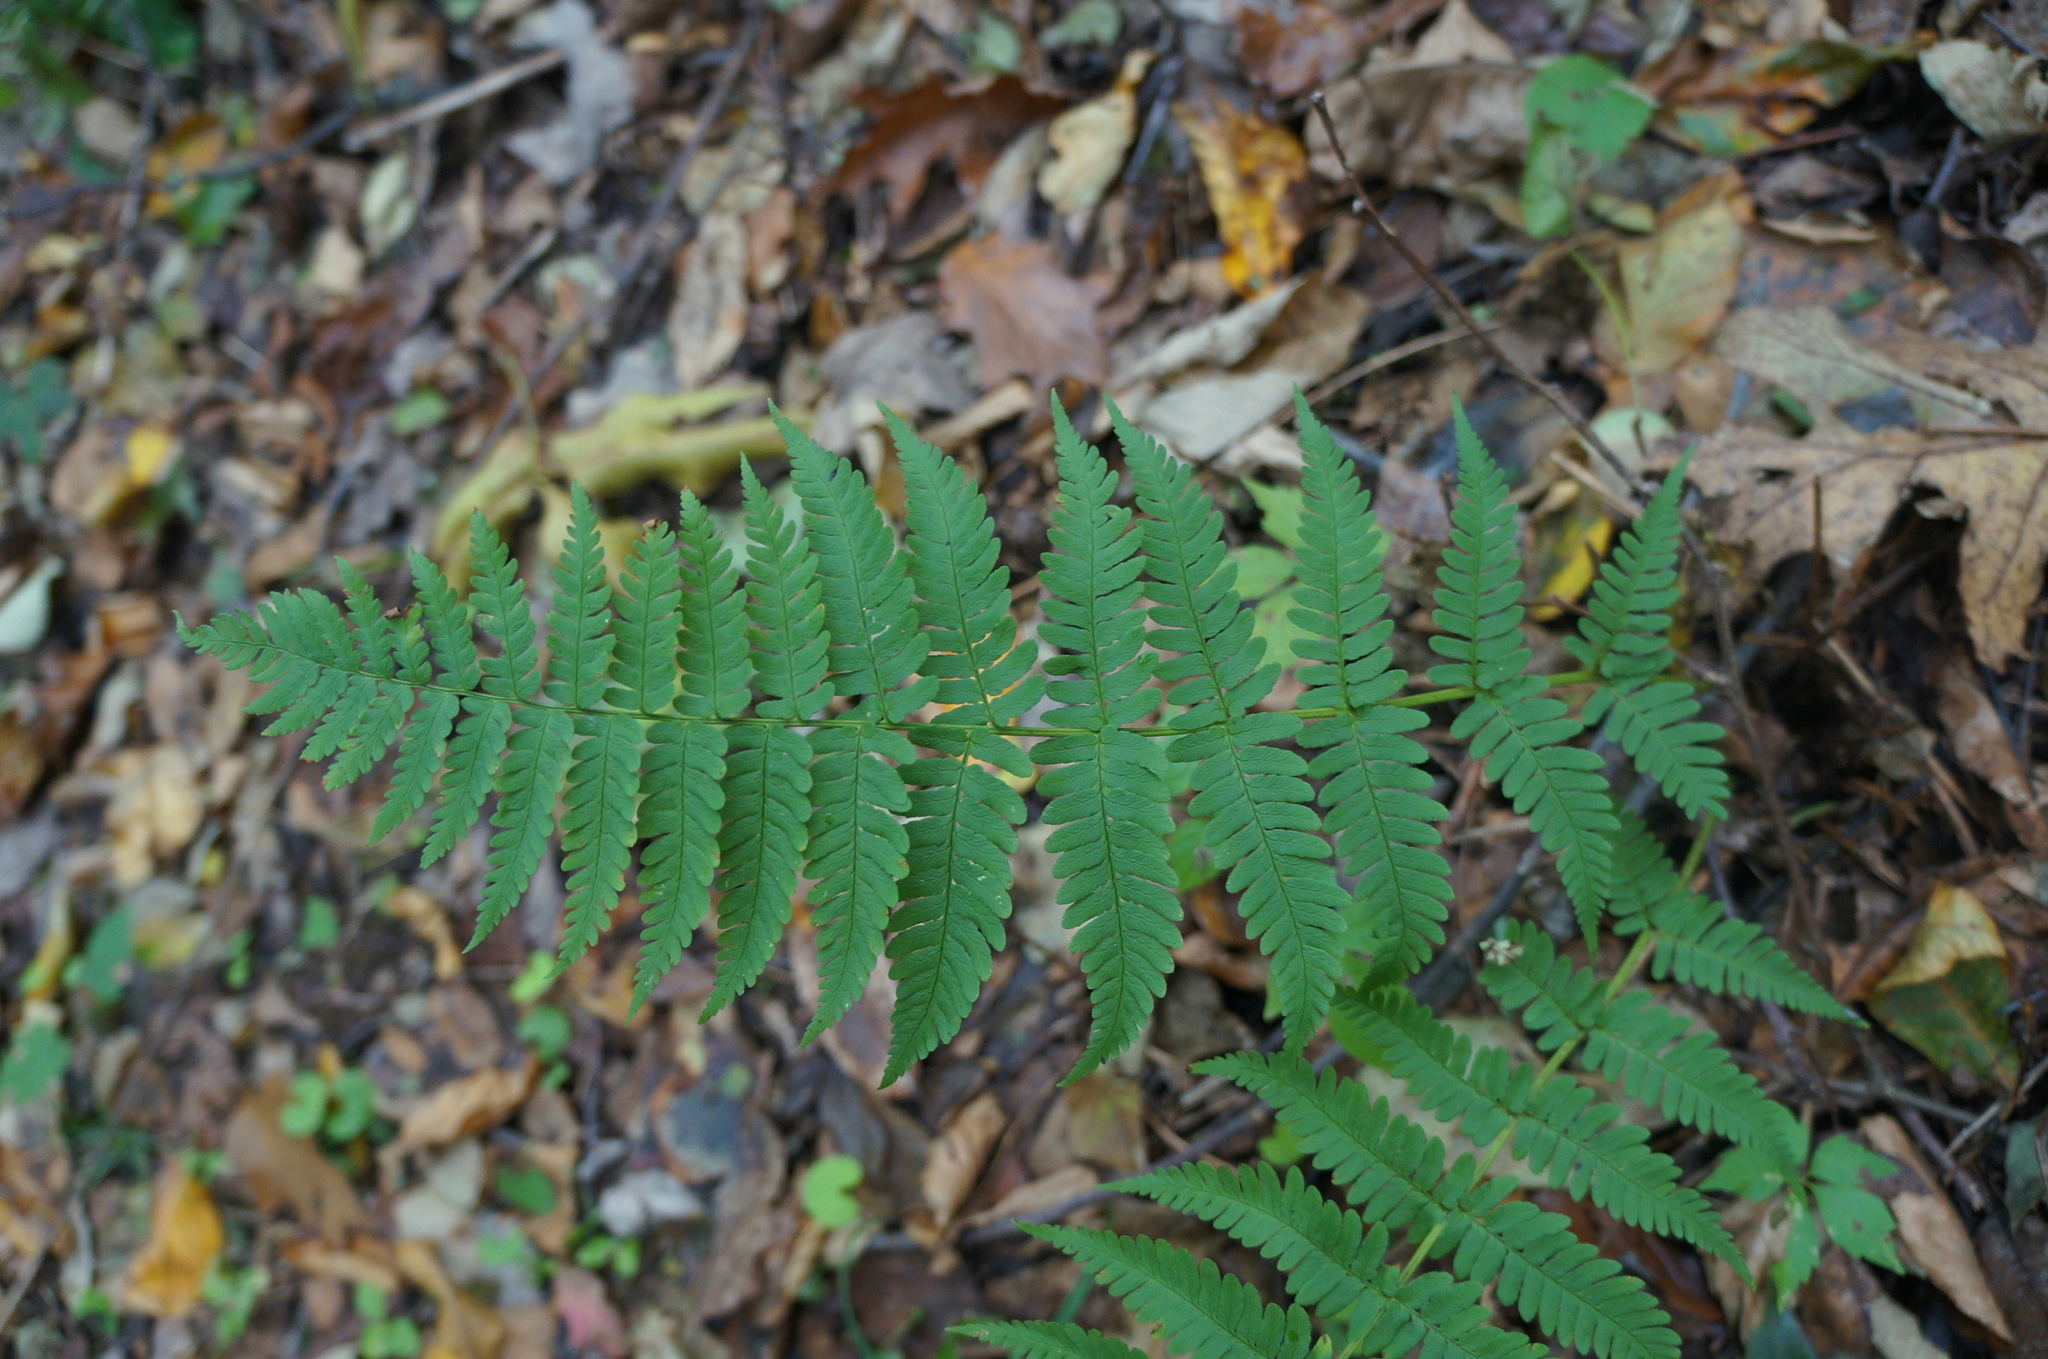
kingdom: Plantae
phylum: Tracheophyta
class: Polypodiopsida
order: Polypodiales
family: Dryopteridaceae
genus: Dryopteris
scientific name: Dryopteris marginalis
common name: Marginal wood fern
